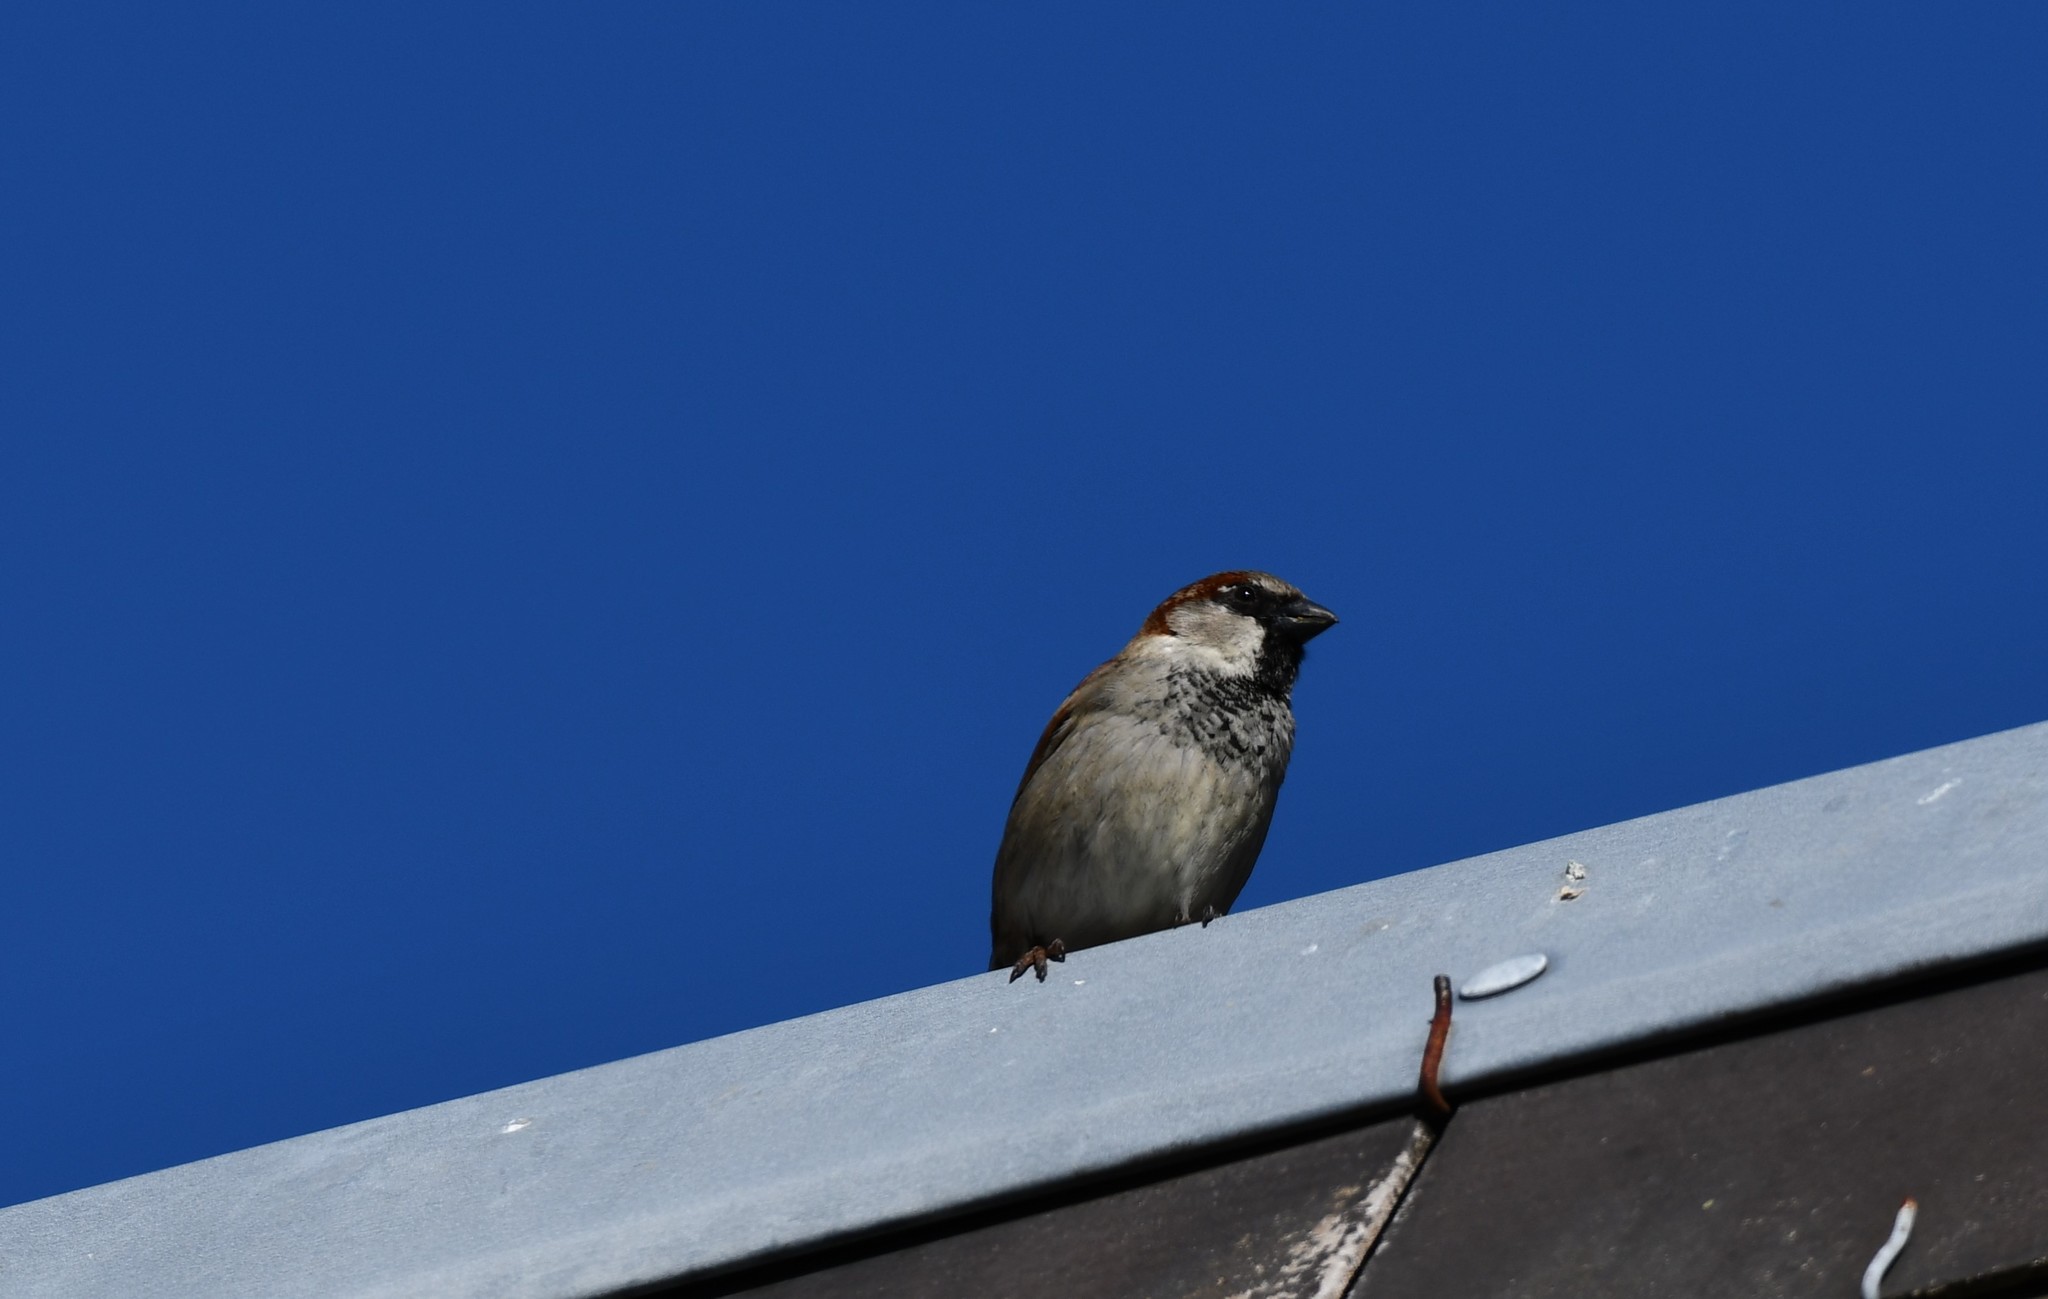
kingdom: Animalia
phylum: Chordata
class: Aves
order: Passeriformes
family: Passeridae
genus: Passer
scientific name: Passer domesticus
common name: House sparrow
